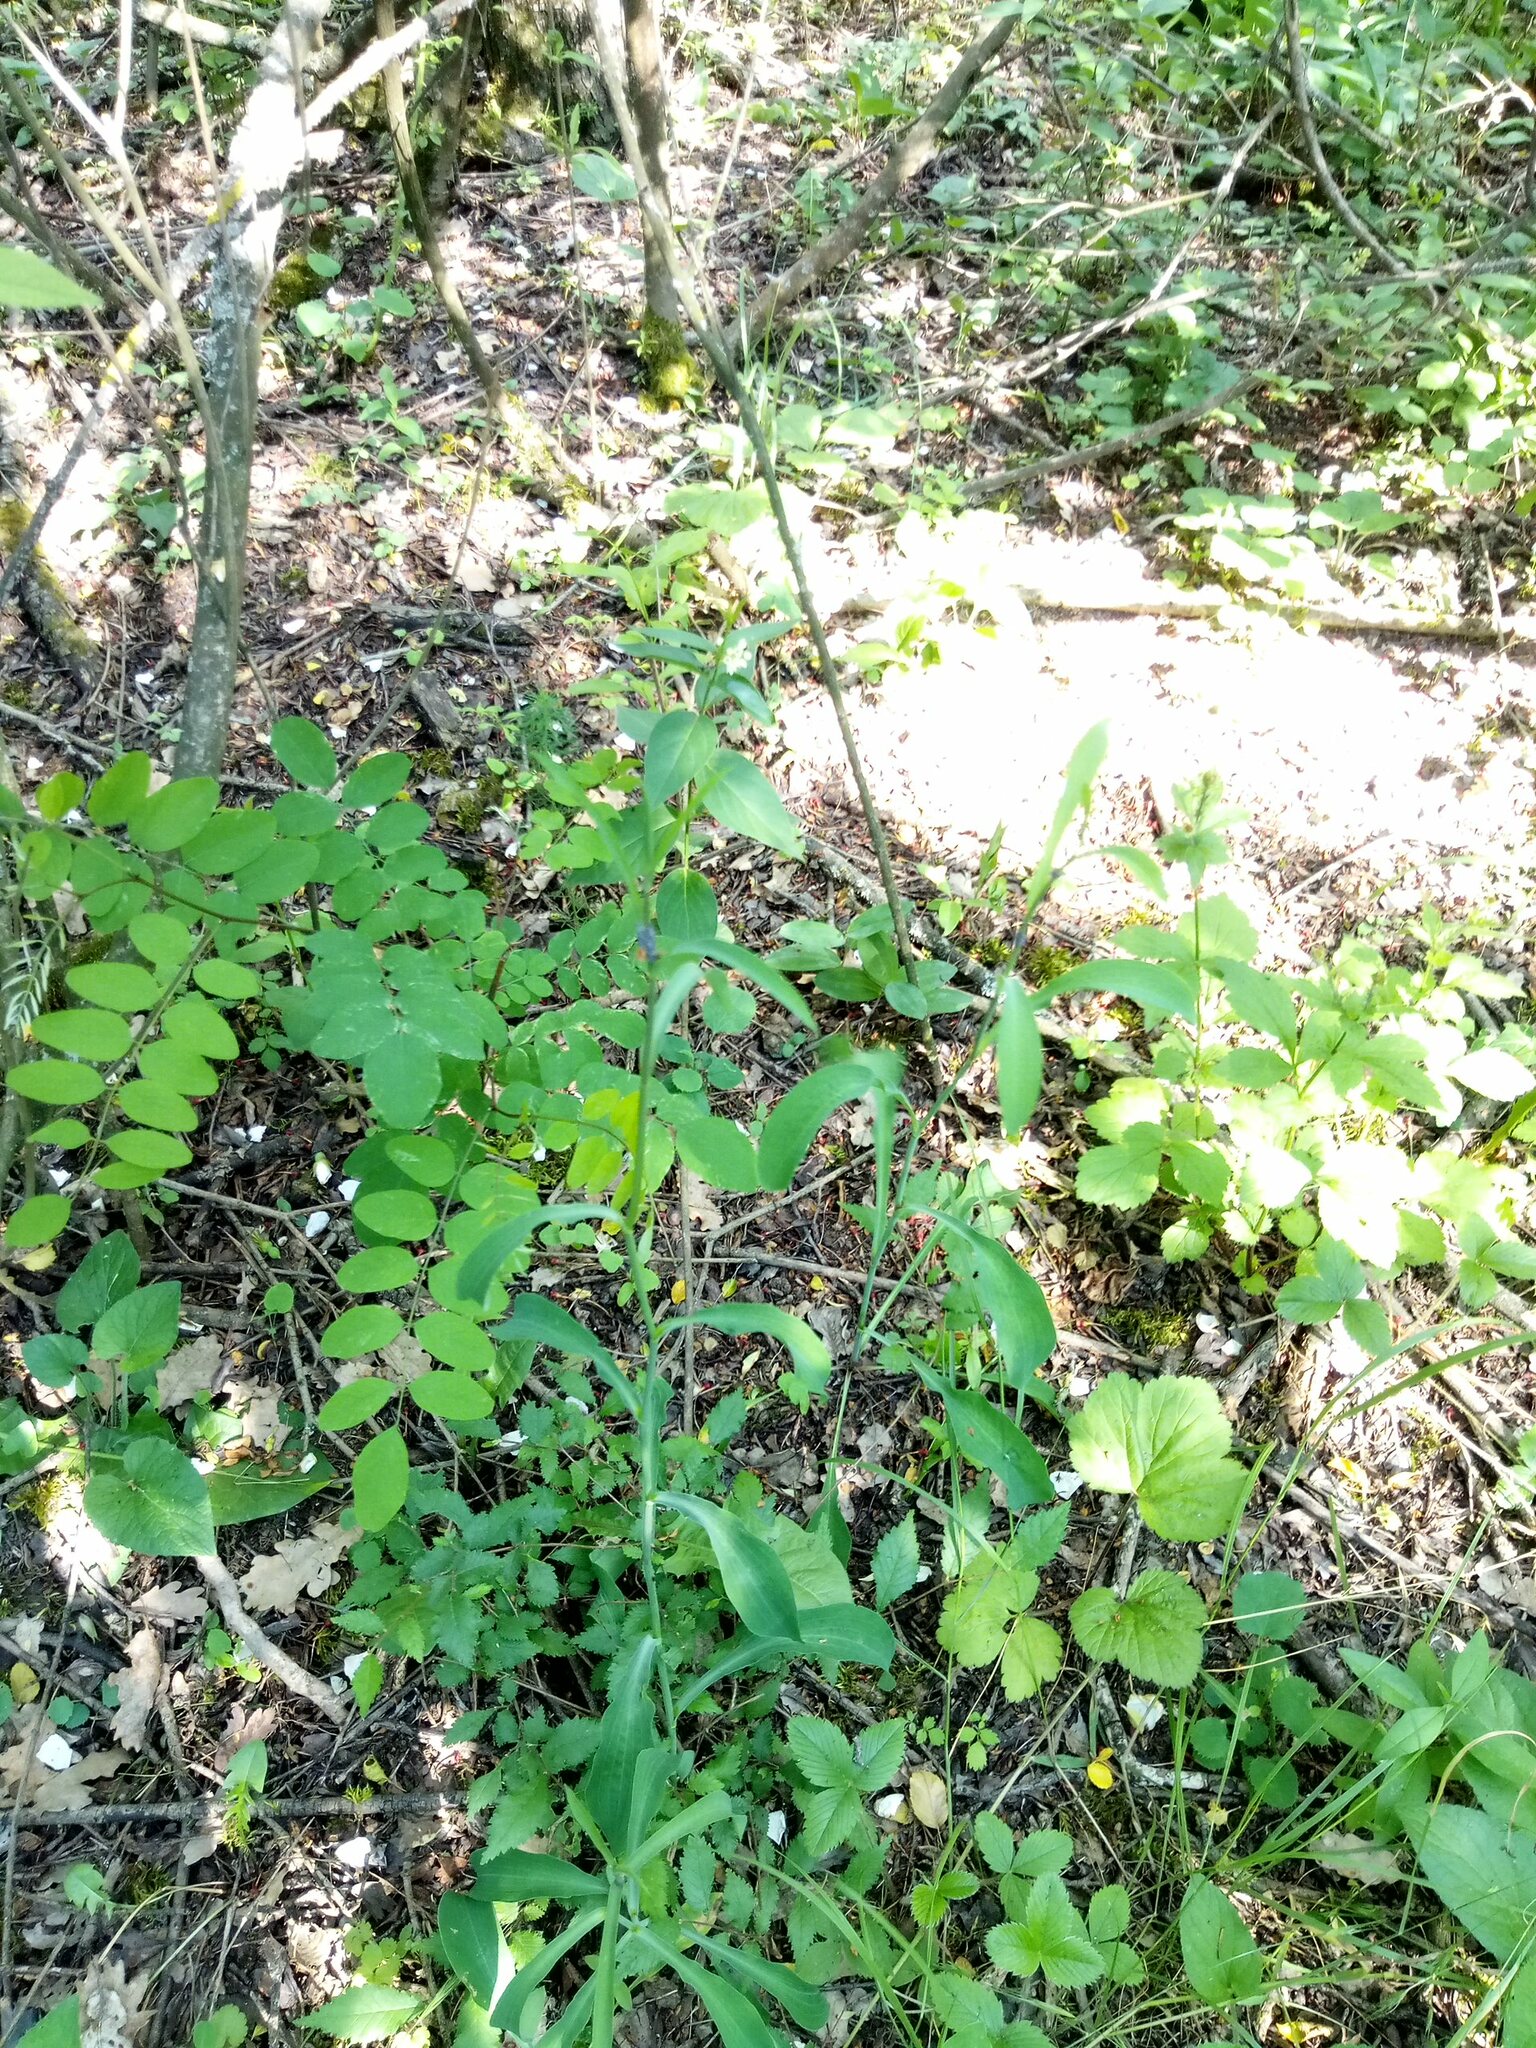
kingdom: Plantae
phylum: Tracheophyta
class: Magnoliopsida
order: Apiales
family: Apiaceae
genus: Bupleurum
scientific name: Bupleurum falcatum
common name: Sickle-leaved hare's-ear
